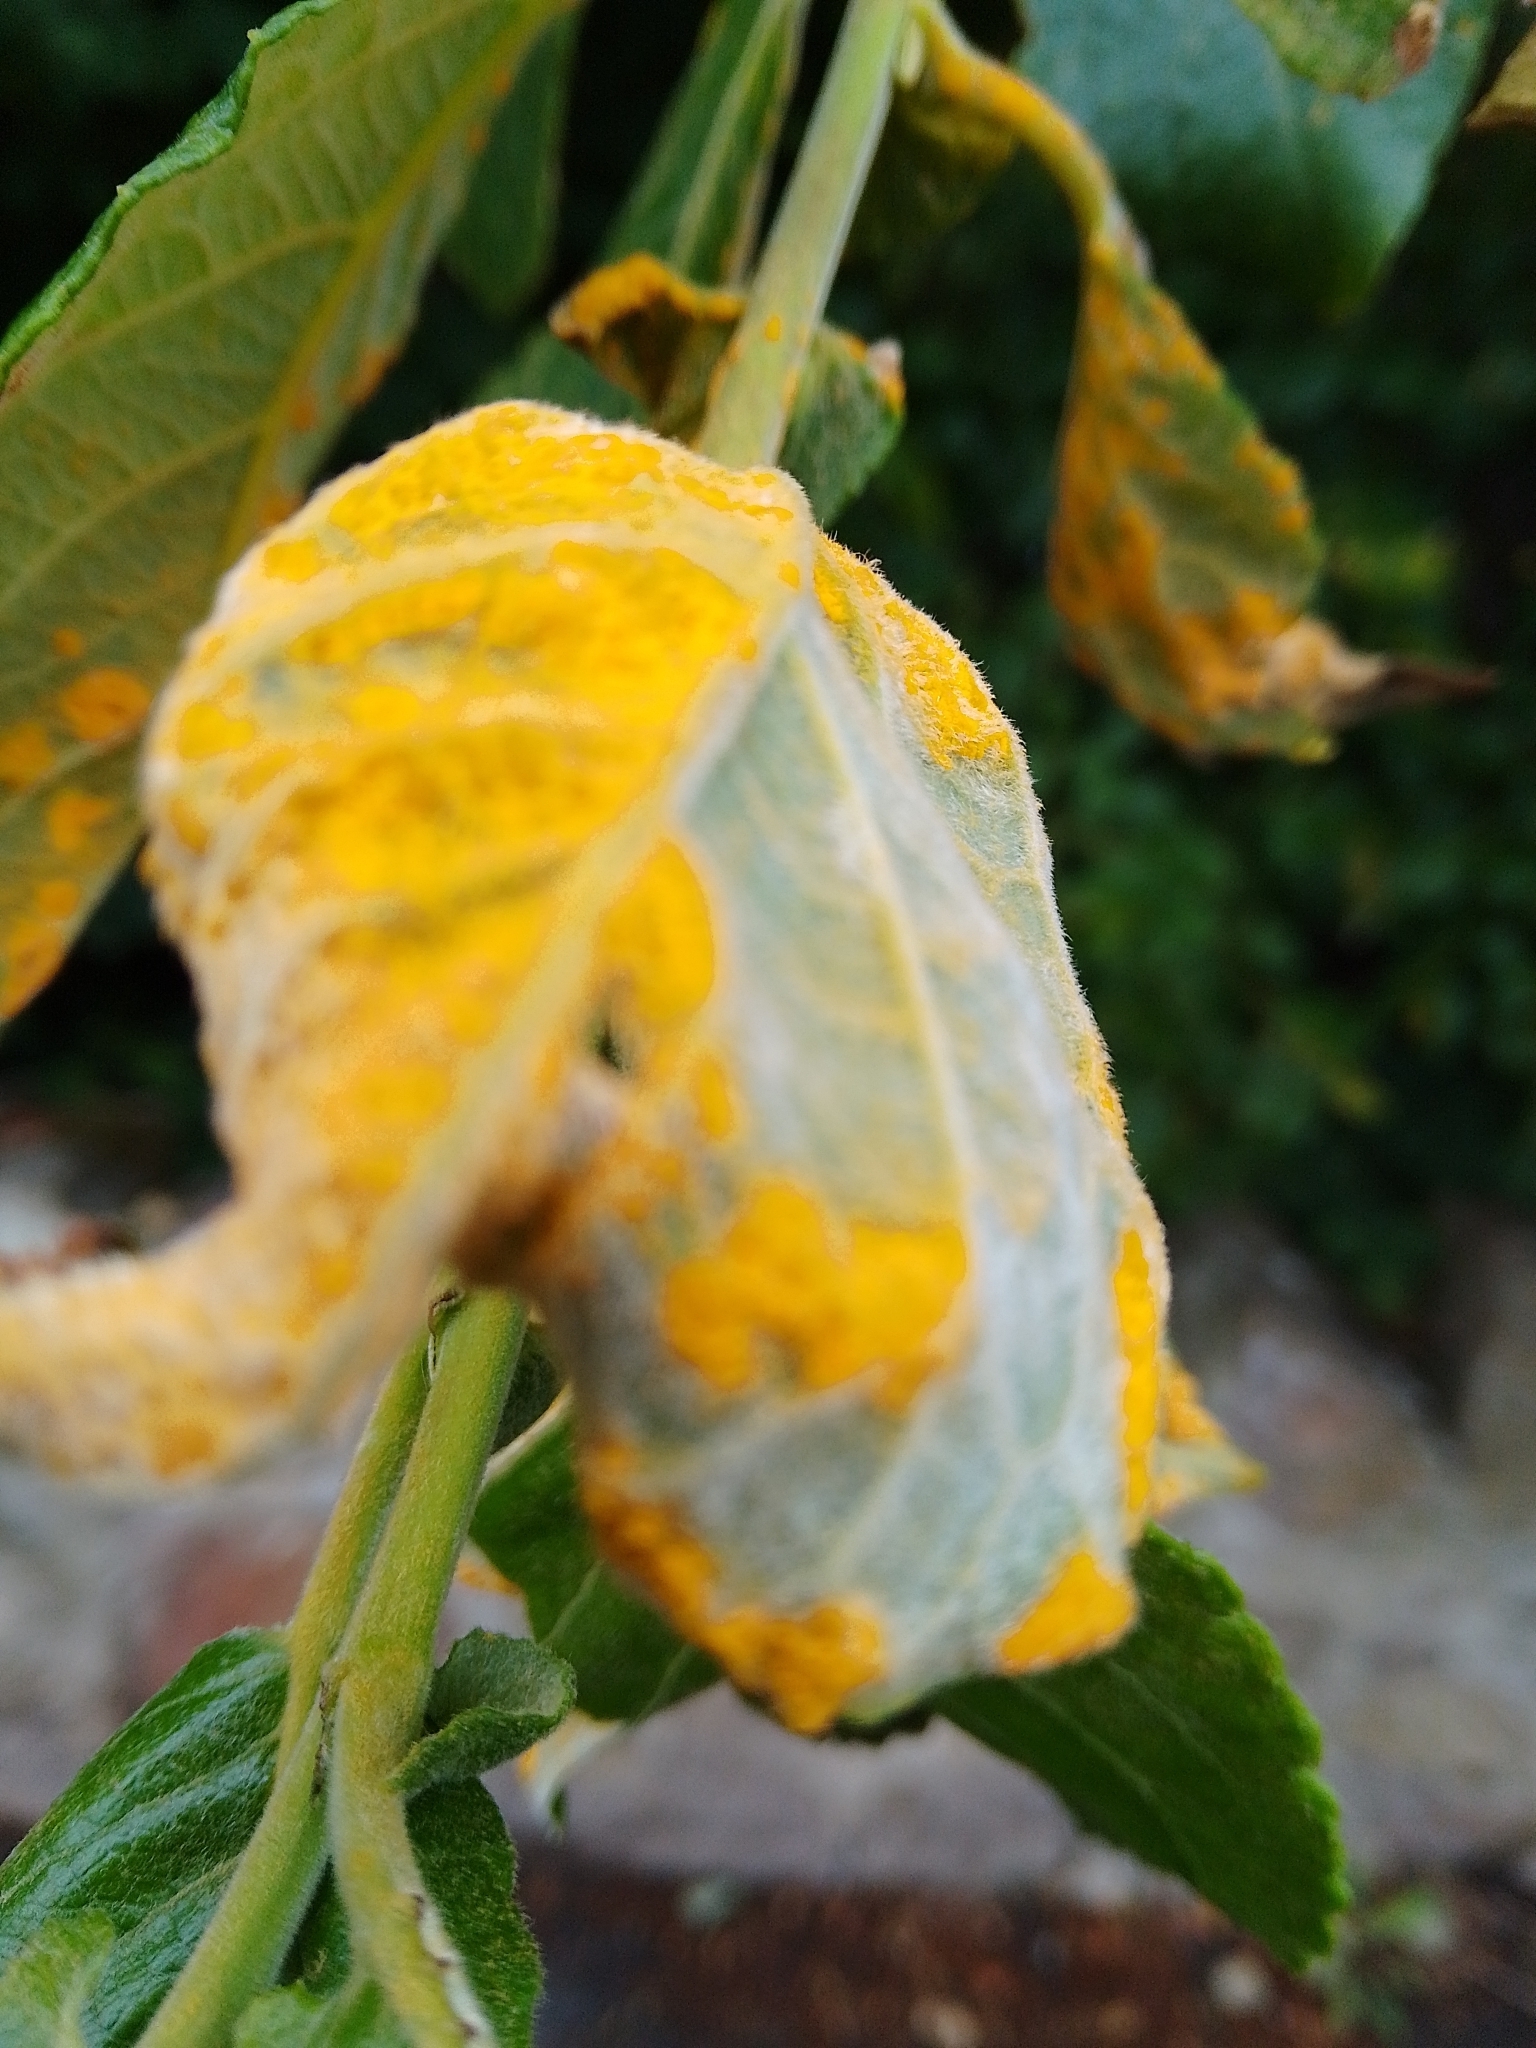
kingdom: Fungi
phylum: Basidiomycota
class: Pucciniomycetes
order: Pucciniales
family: Melampsoraceae
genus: Melampsora
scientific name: Melampsora
